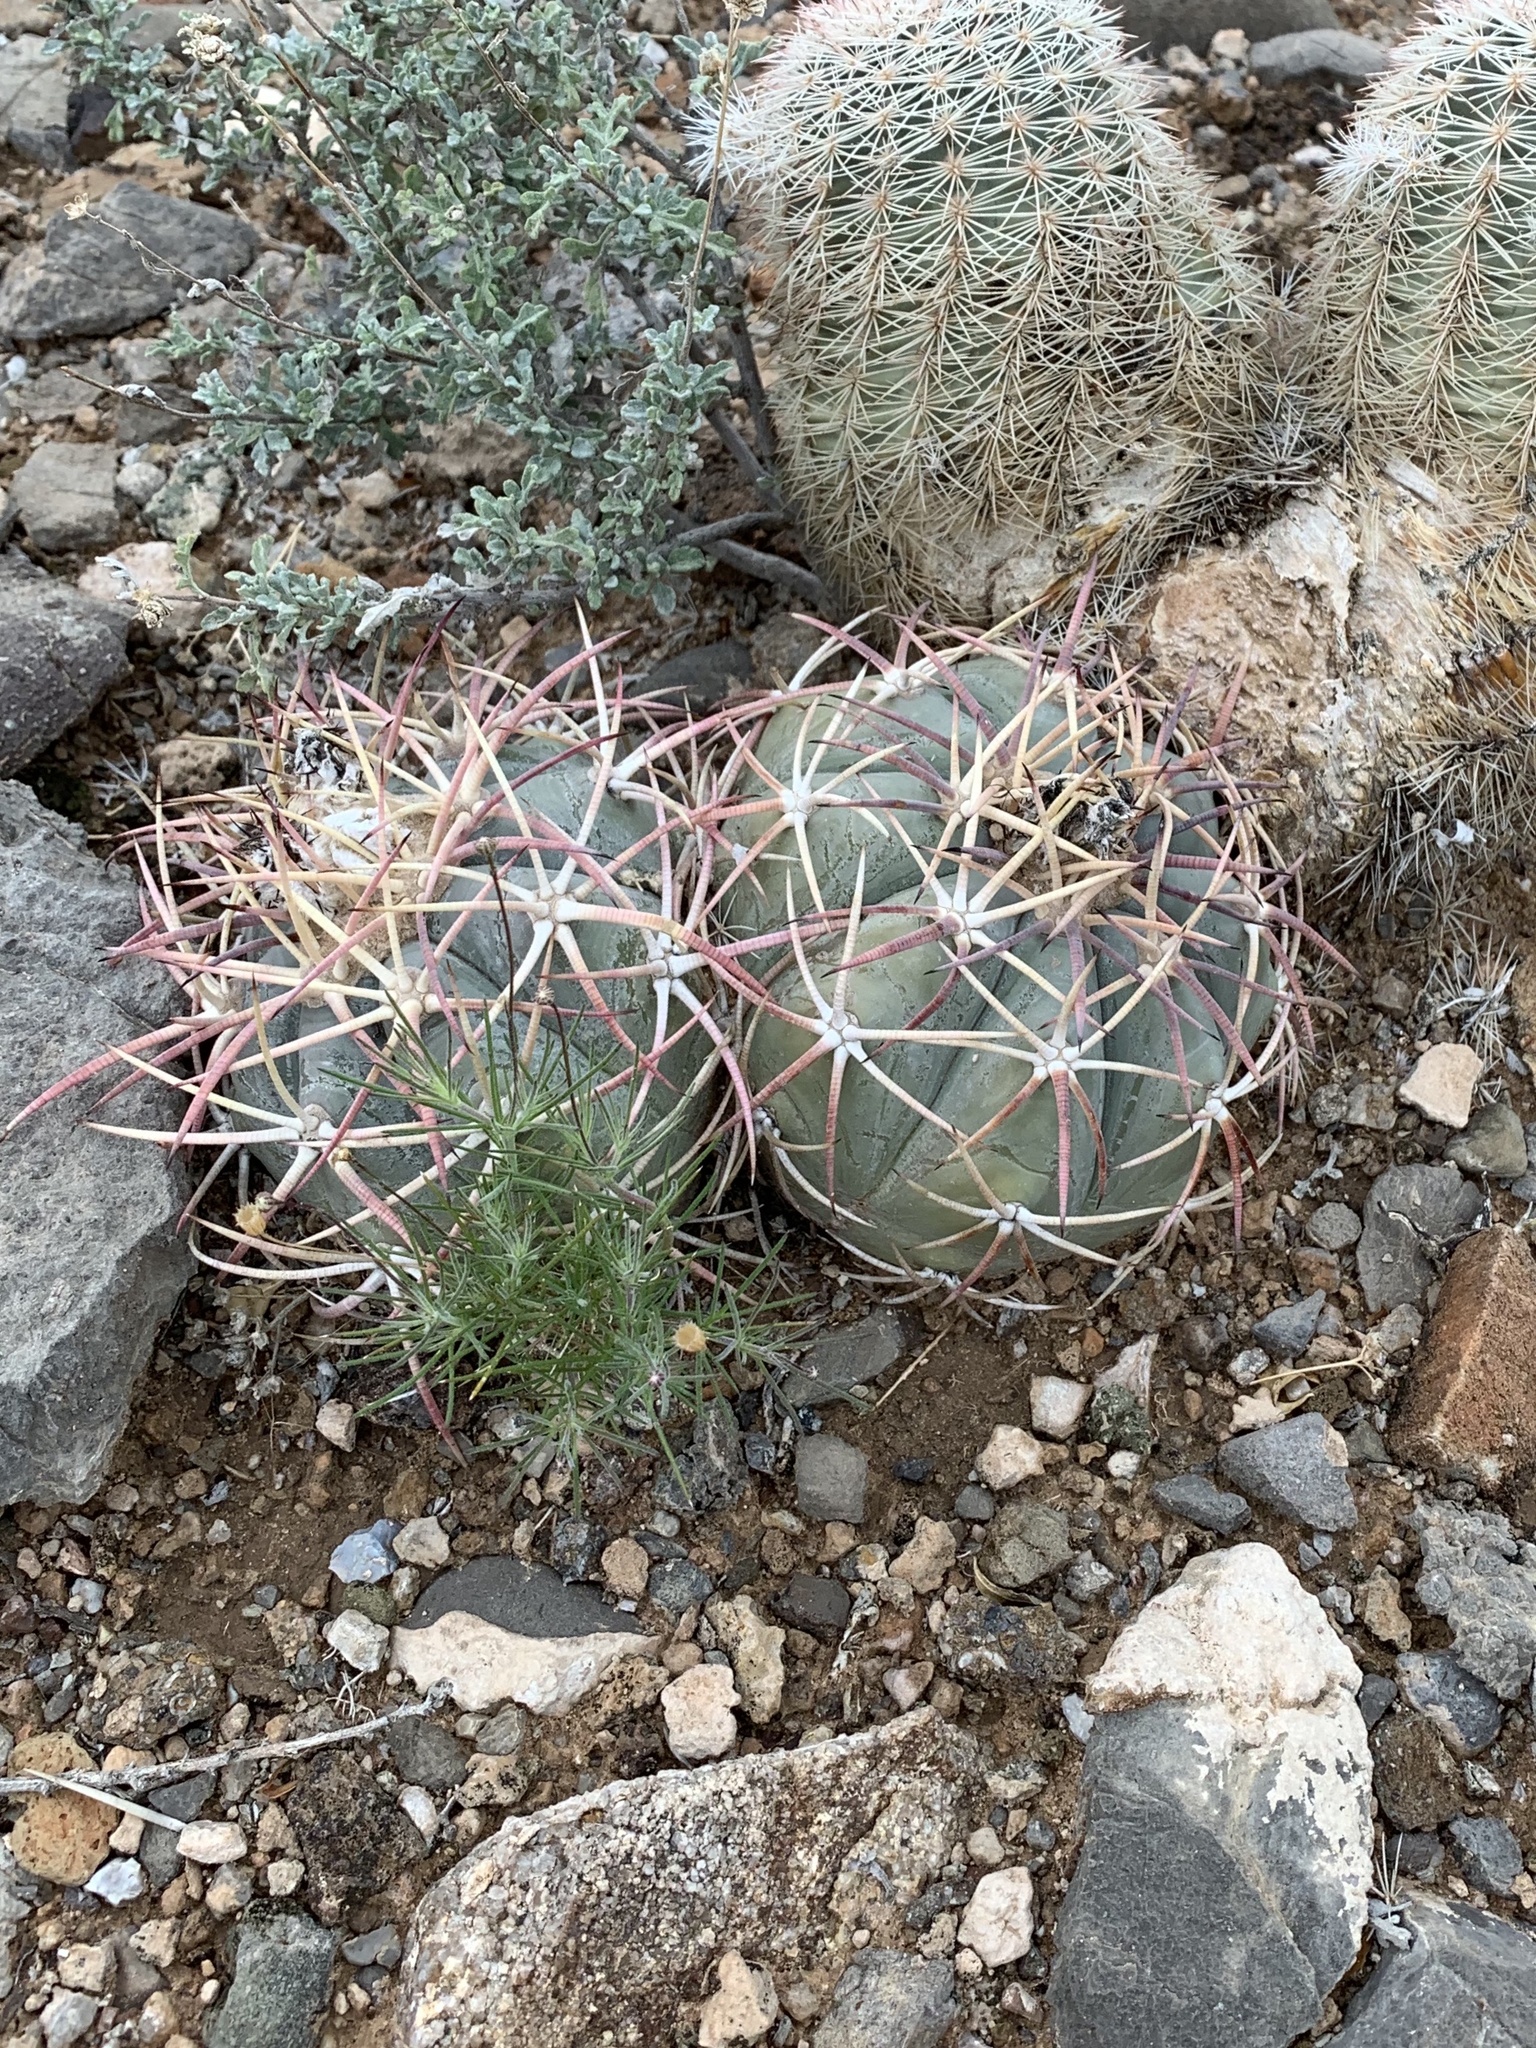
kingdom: Plantae
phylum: Tracheophyta
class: Magnoliopsida
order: Caryophyllales
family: Cactaceae
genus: Echinocactus
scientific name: Echinocactus horizonthalonius
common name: Devilshead
